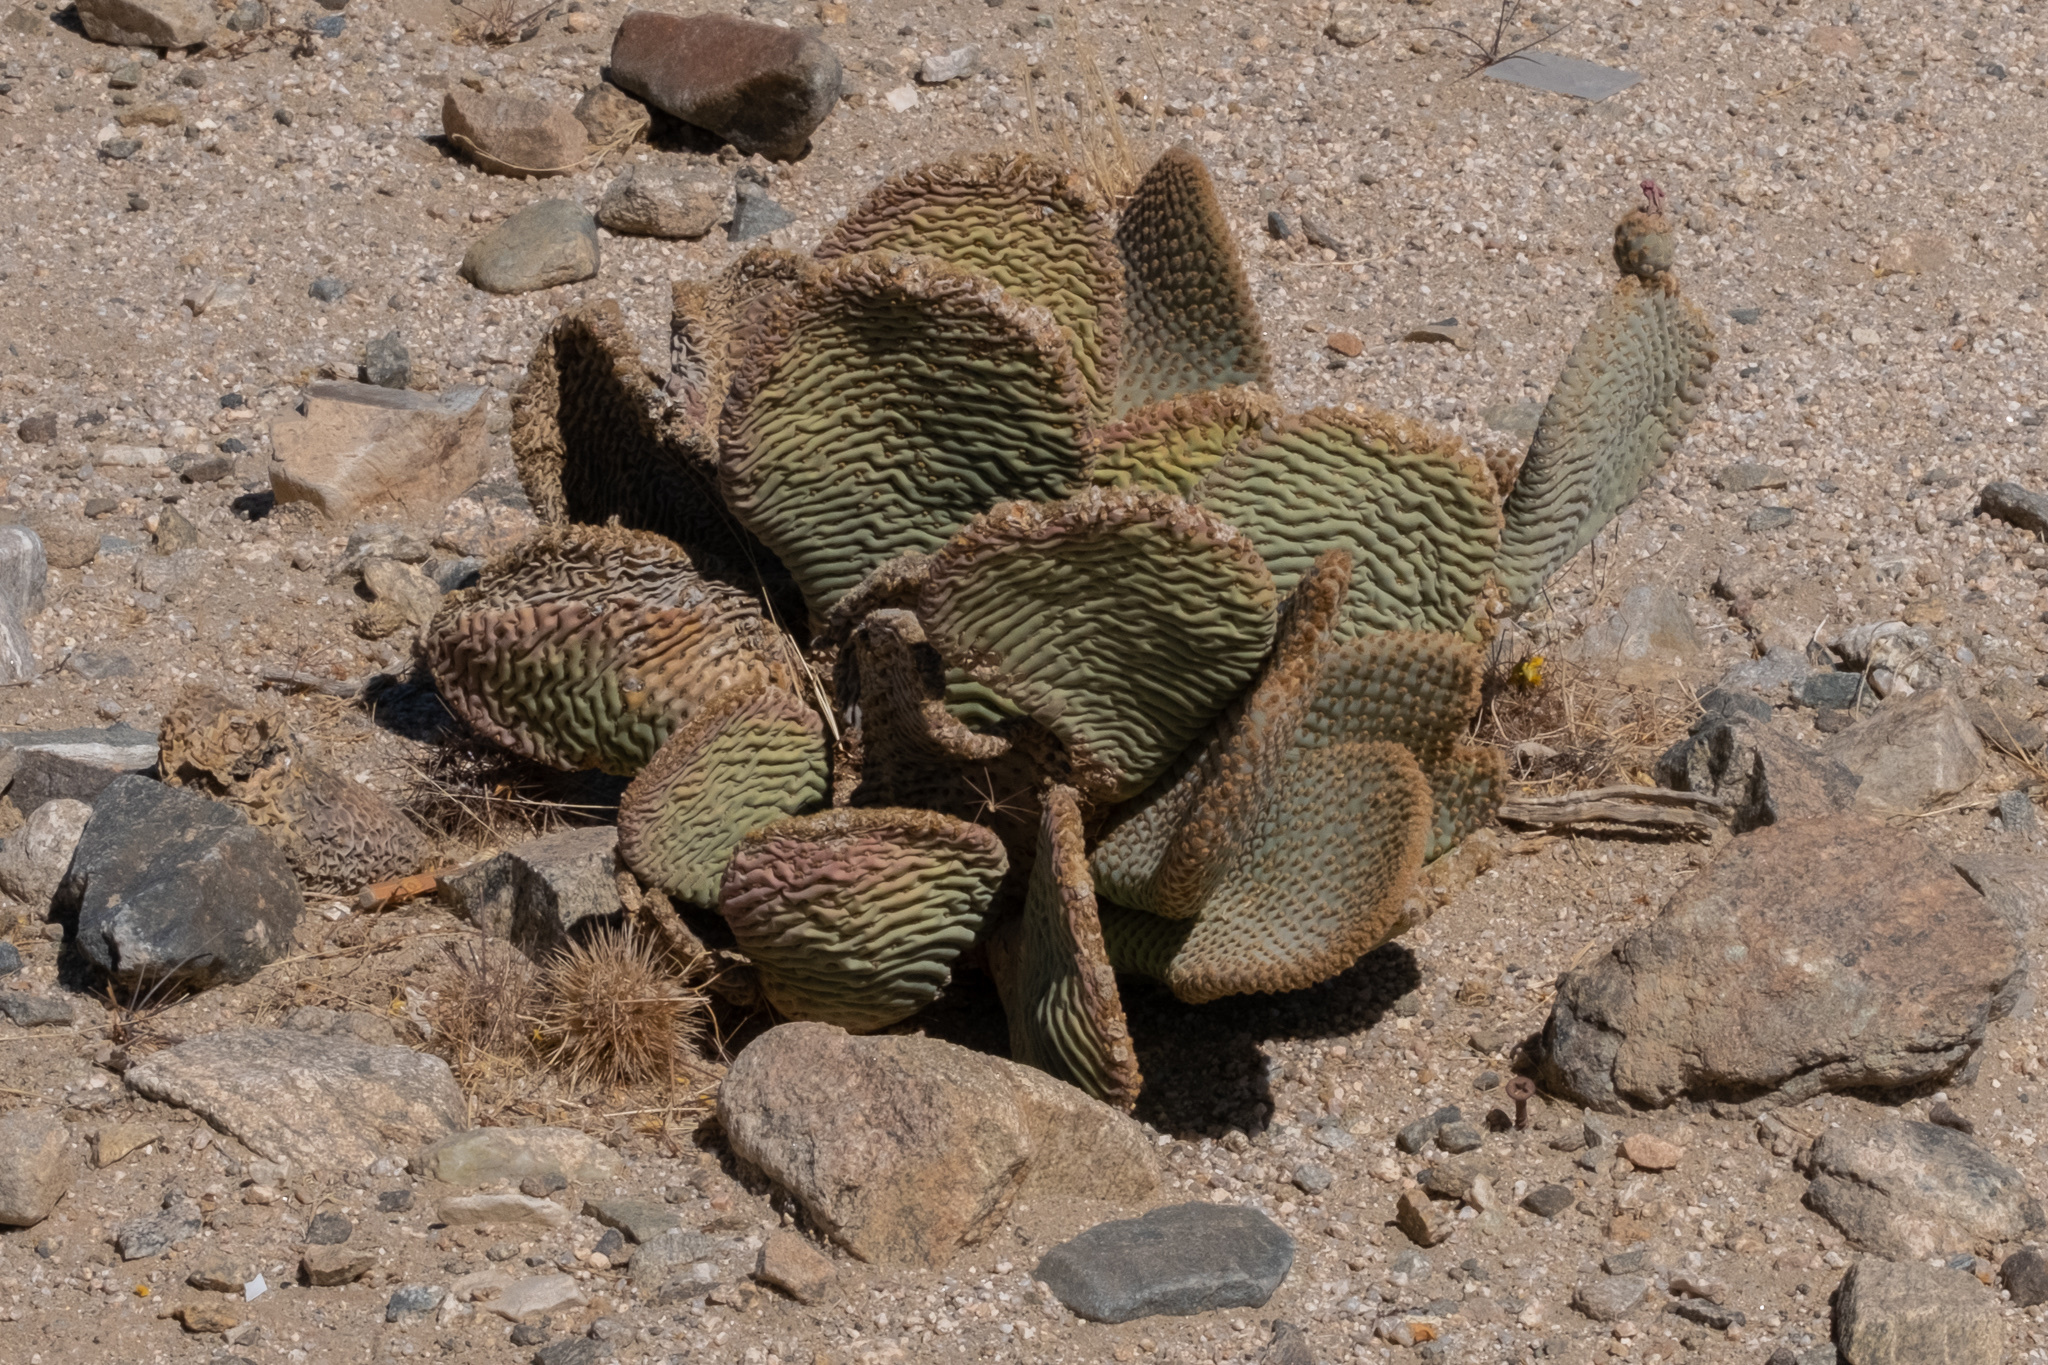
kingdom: Plantae
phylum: Tracheophyta
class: Magnoliopsida
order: Caryophyllales
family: Cactaceae
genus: Opuntia
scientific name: Opuntia basilaris
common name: Beavertail prickly-pear
